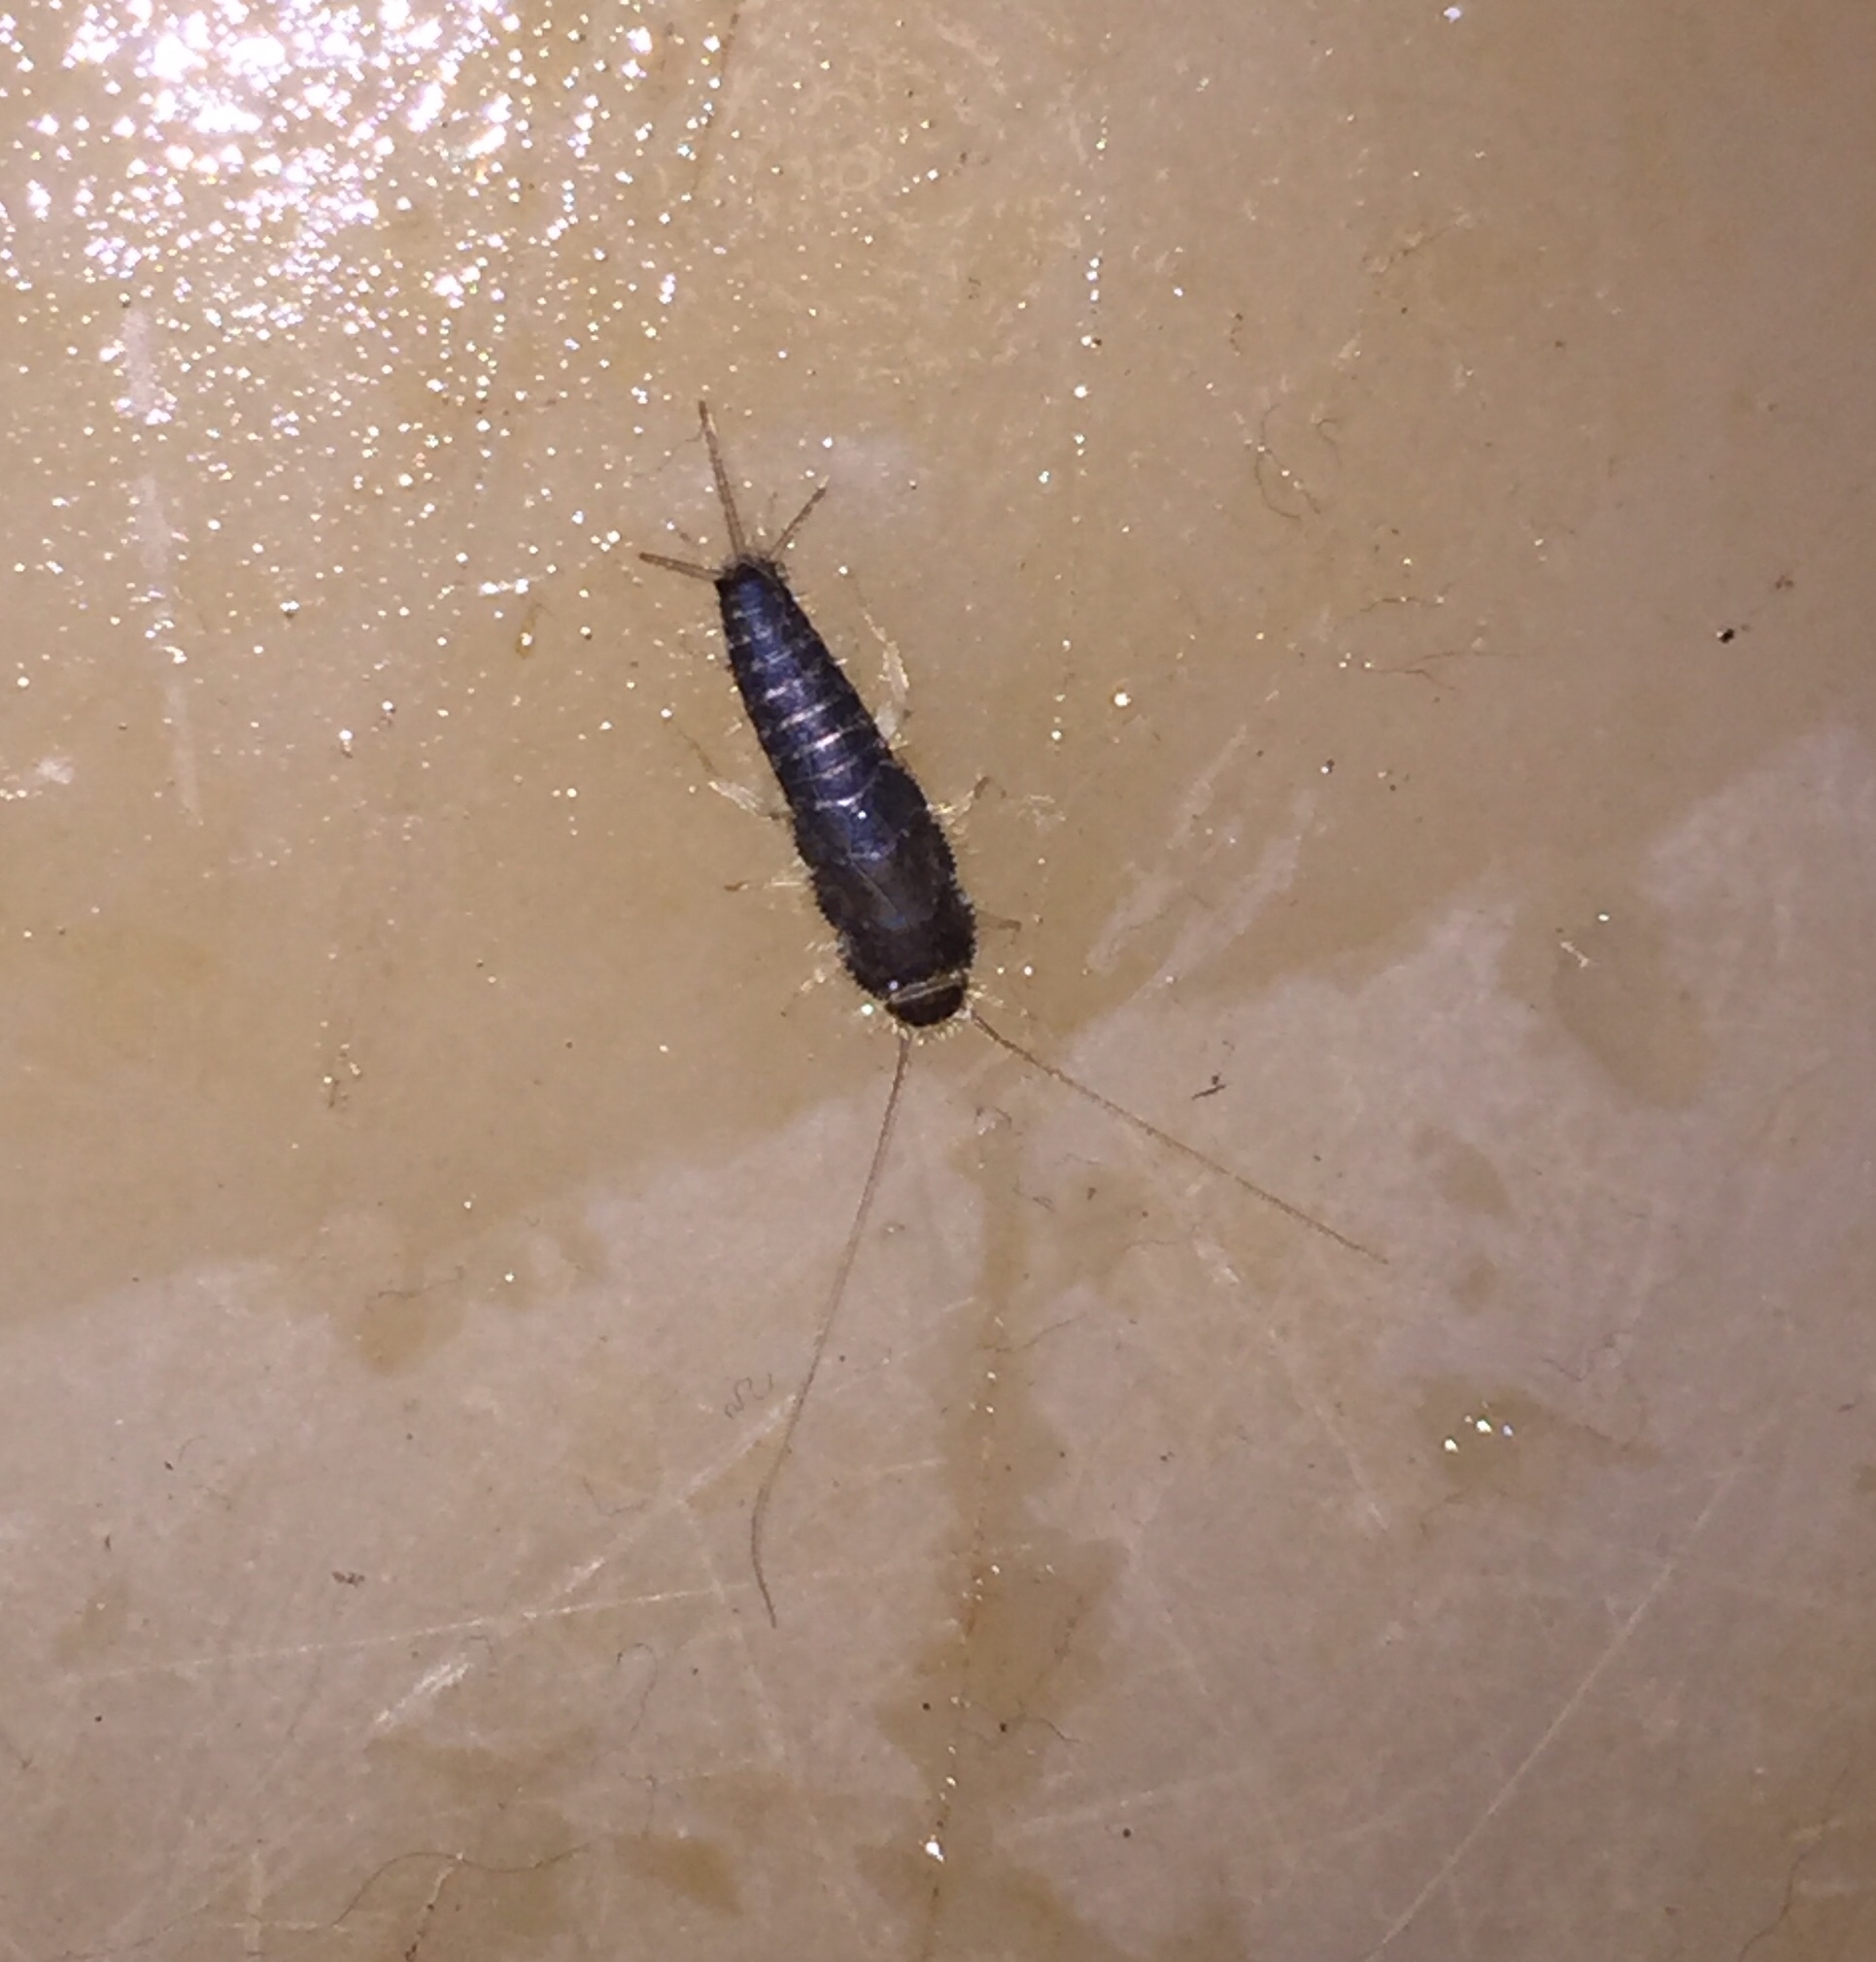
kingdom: Animalia
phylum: Arthropoda
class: Insecta
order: Zygentoma
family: Lepismatidae
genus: Ctenolepisma
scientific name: Ctenolepisma longicaudatum
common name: Silverfish
